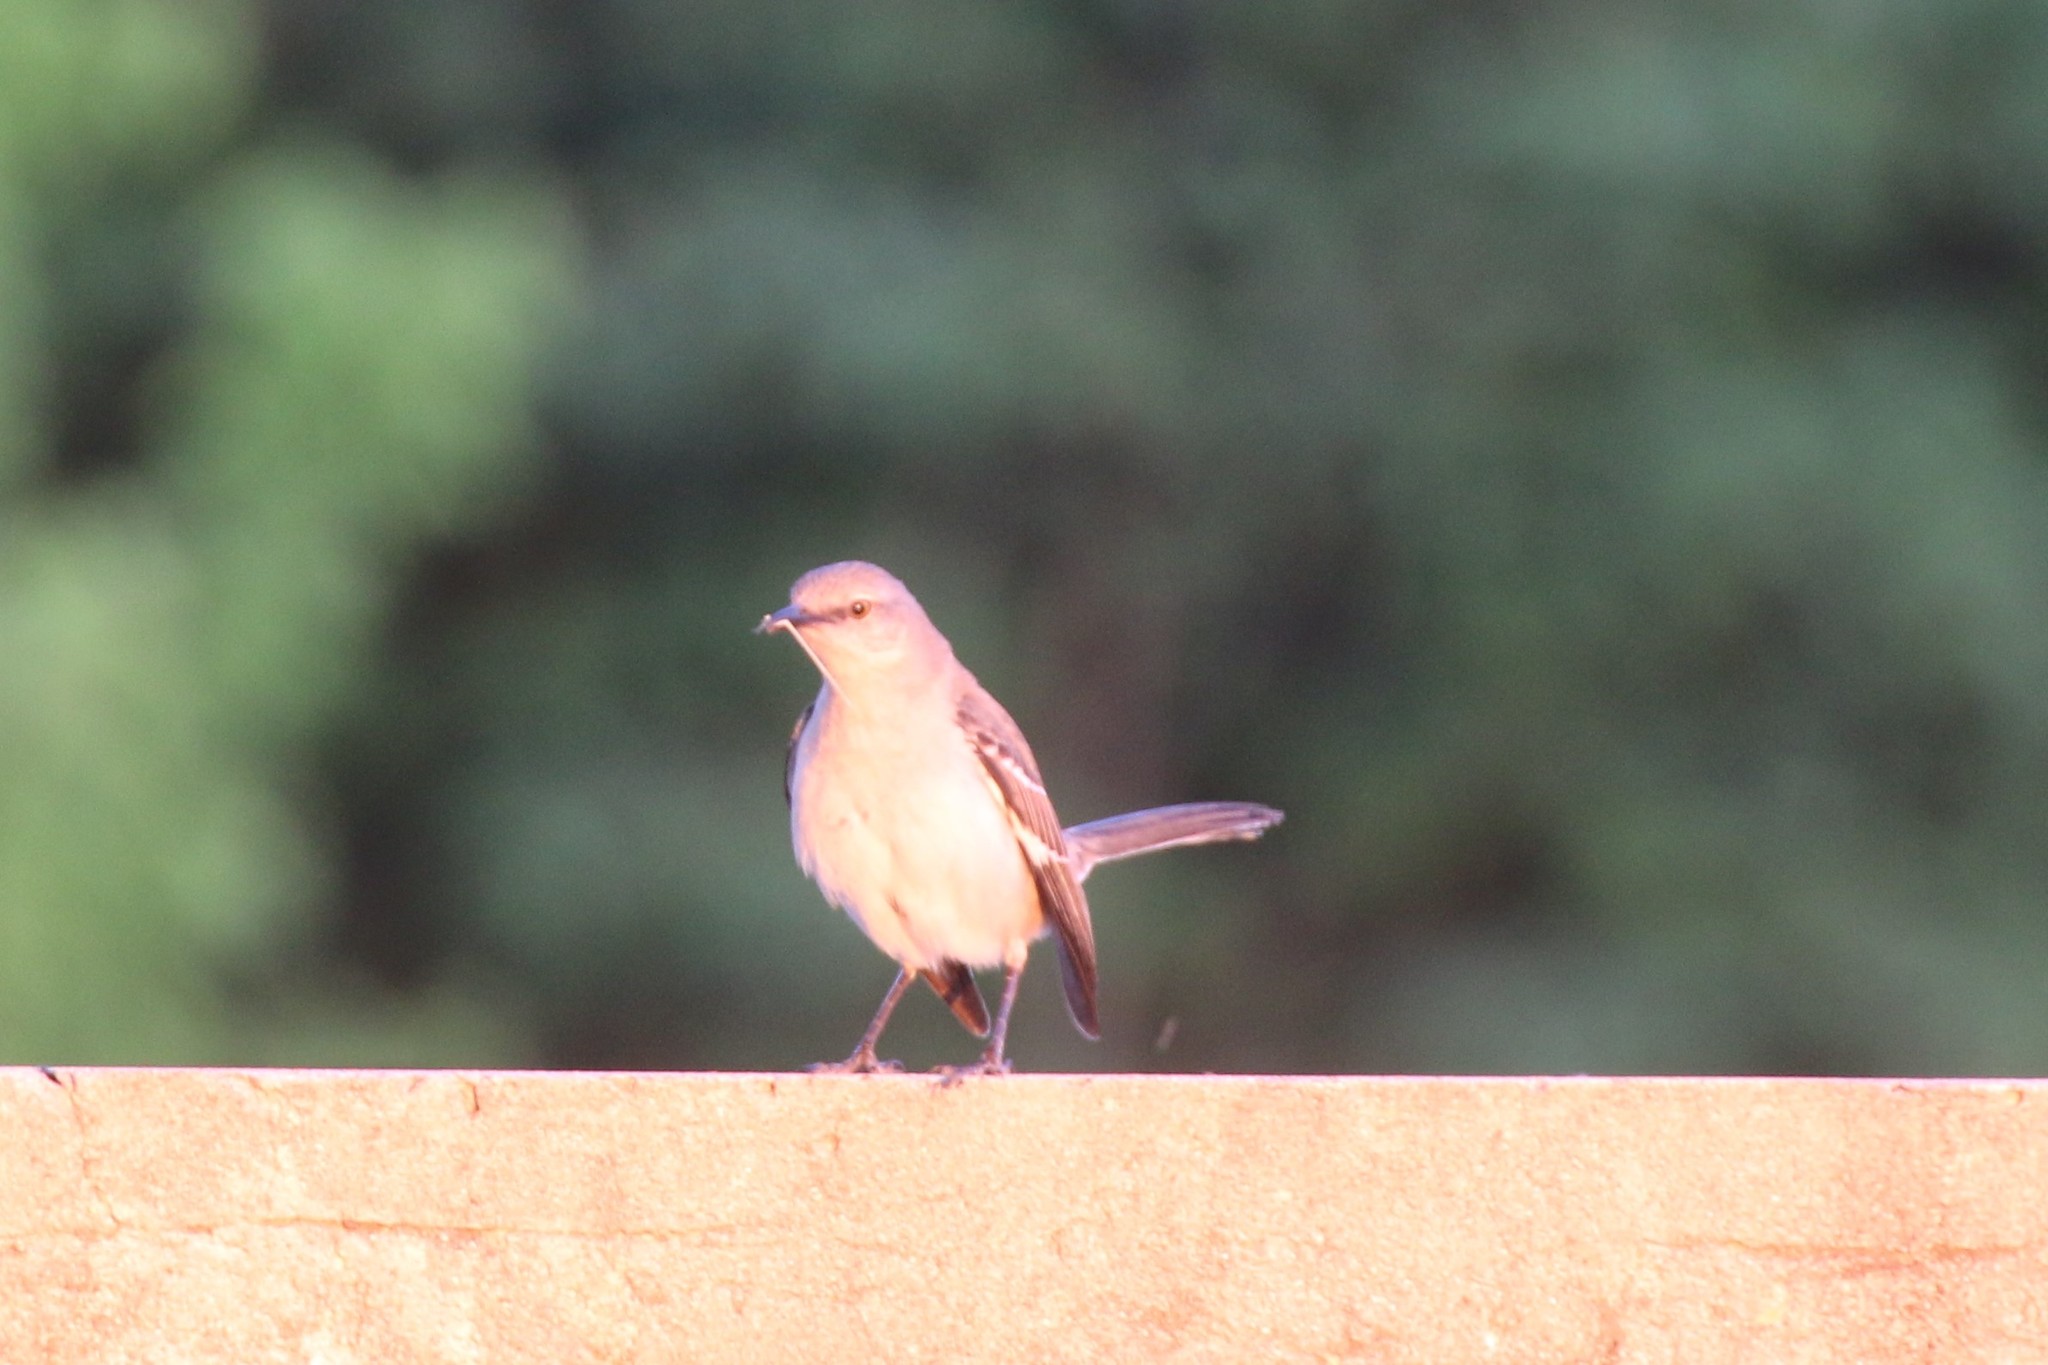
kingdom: Animalia
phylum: Chordata
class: Aves
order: Passeriformes
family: Mimidae
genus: Mimus
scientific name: Mimus polyglottos
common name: Northern mockingbird
